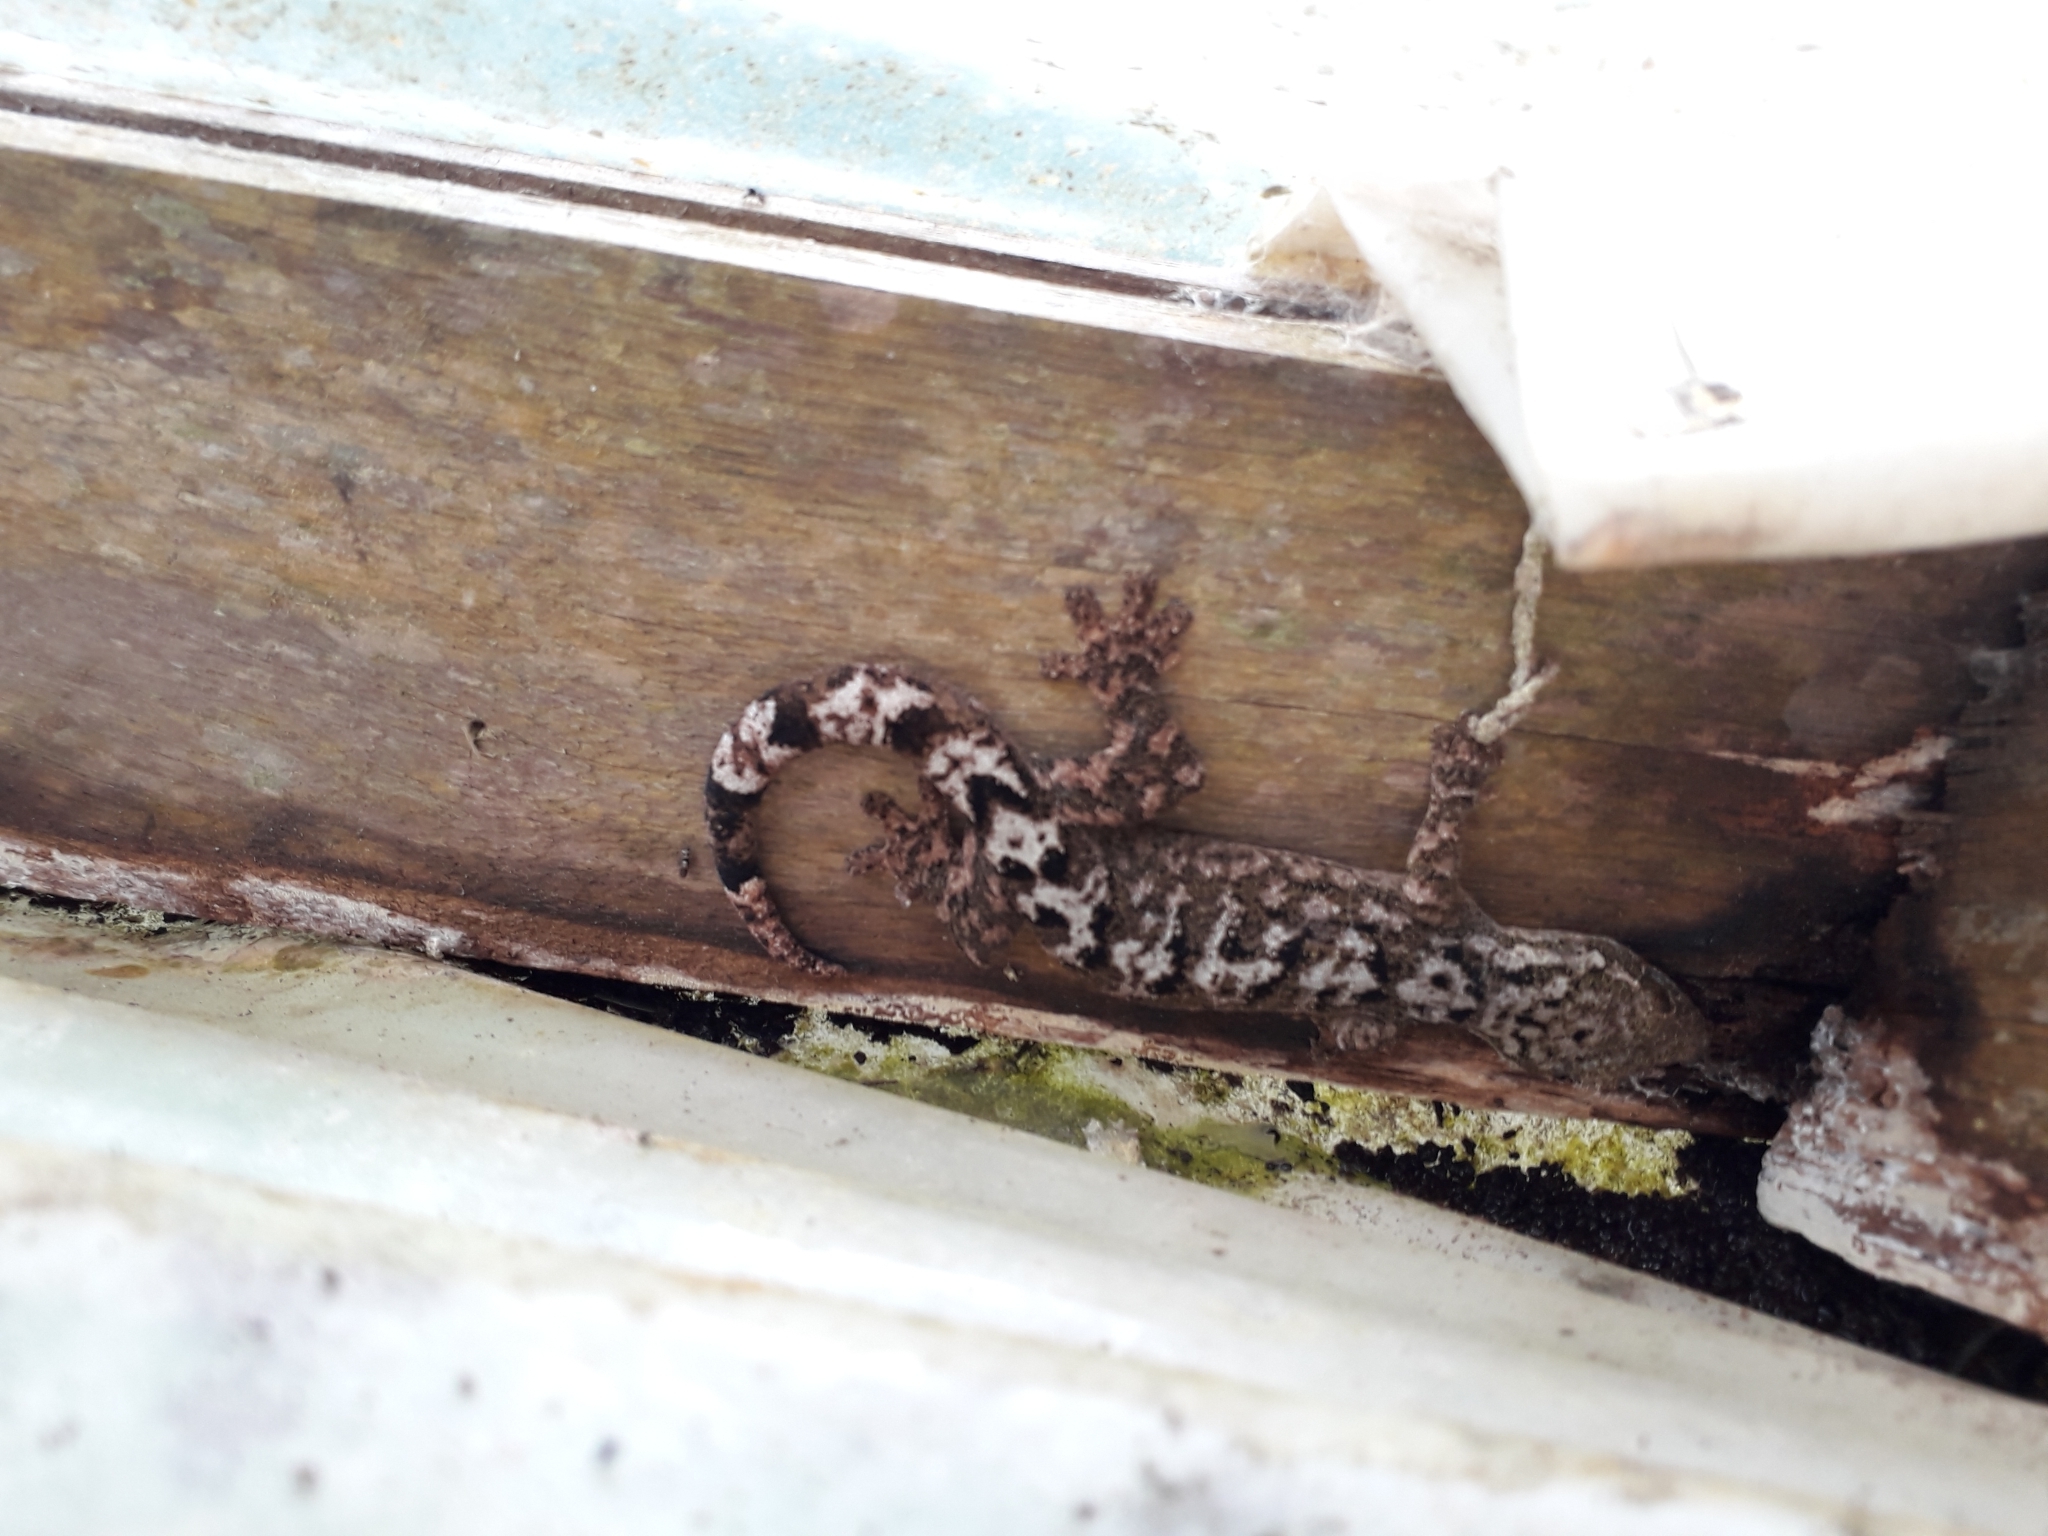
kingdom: Animalia
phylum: Chordata
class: Squamata
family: Phyllodactylidae
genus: Thecadactylus
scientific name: Thecadactylus rapicauda
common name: Turnip-tailed gecko
